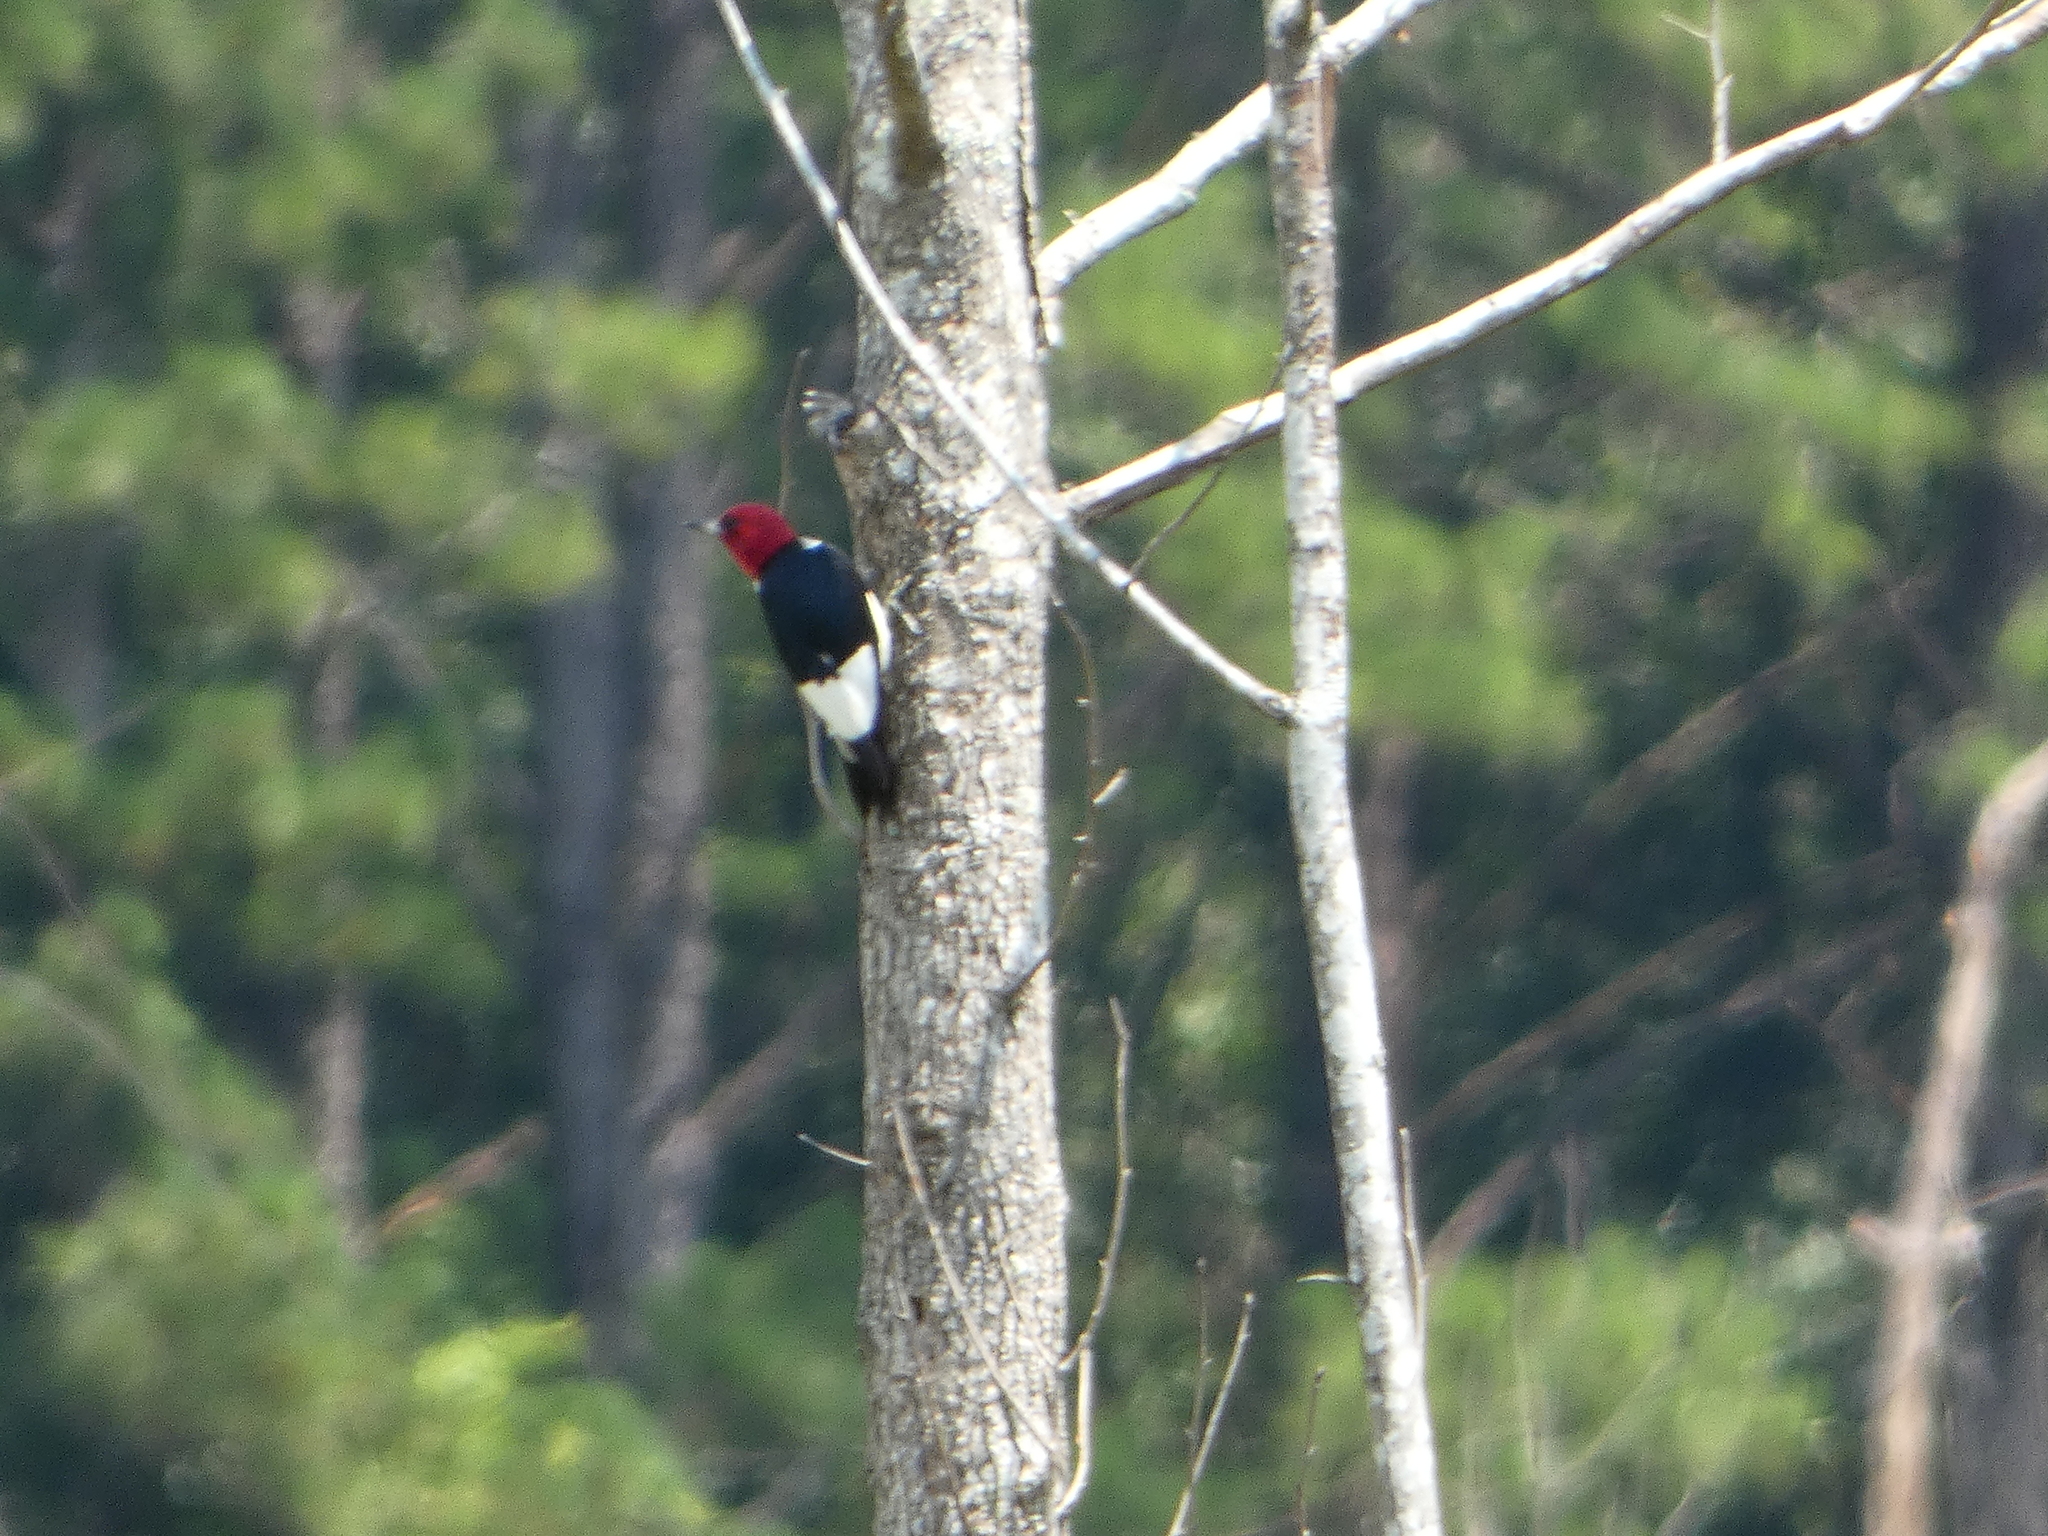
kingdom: Animalia
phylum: Chordata
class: Aves
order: Piciformes
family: Picidae
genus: Melanerpes
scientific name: Melanerpes erythrocephalus
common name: Red-headed woodpecker
